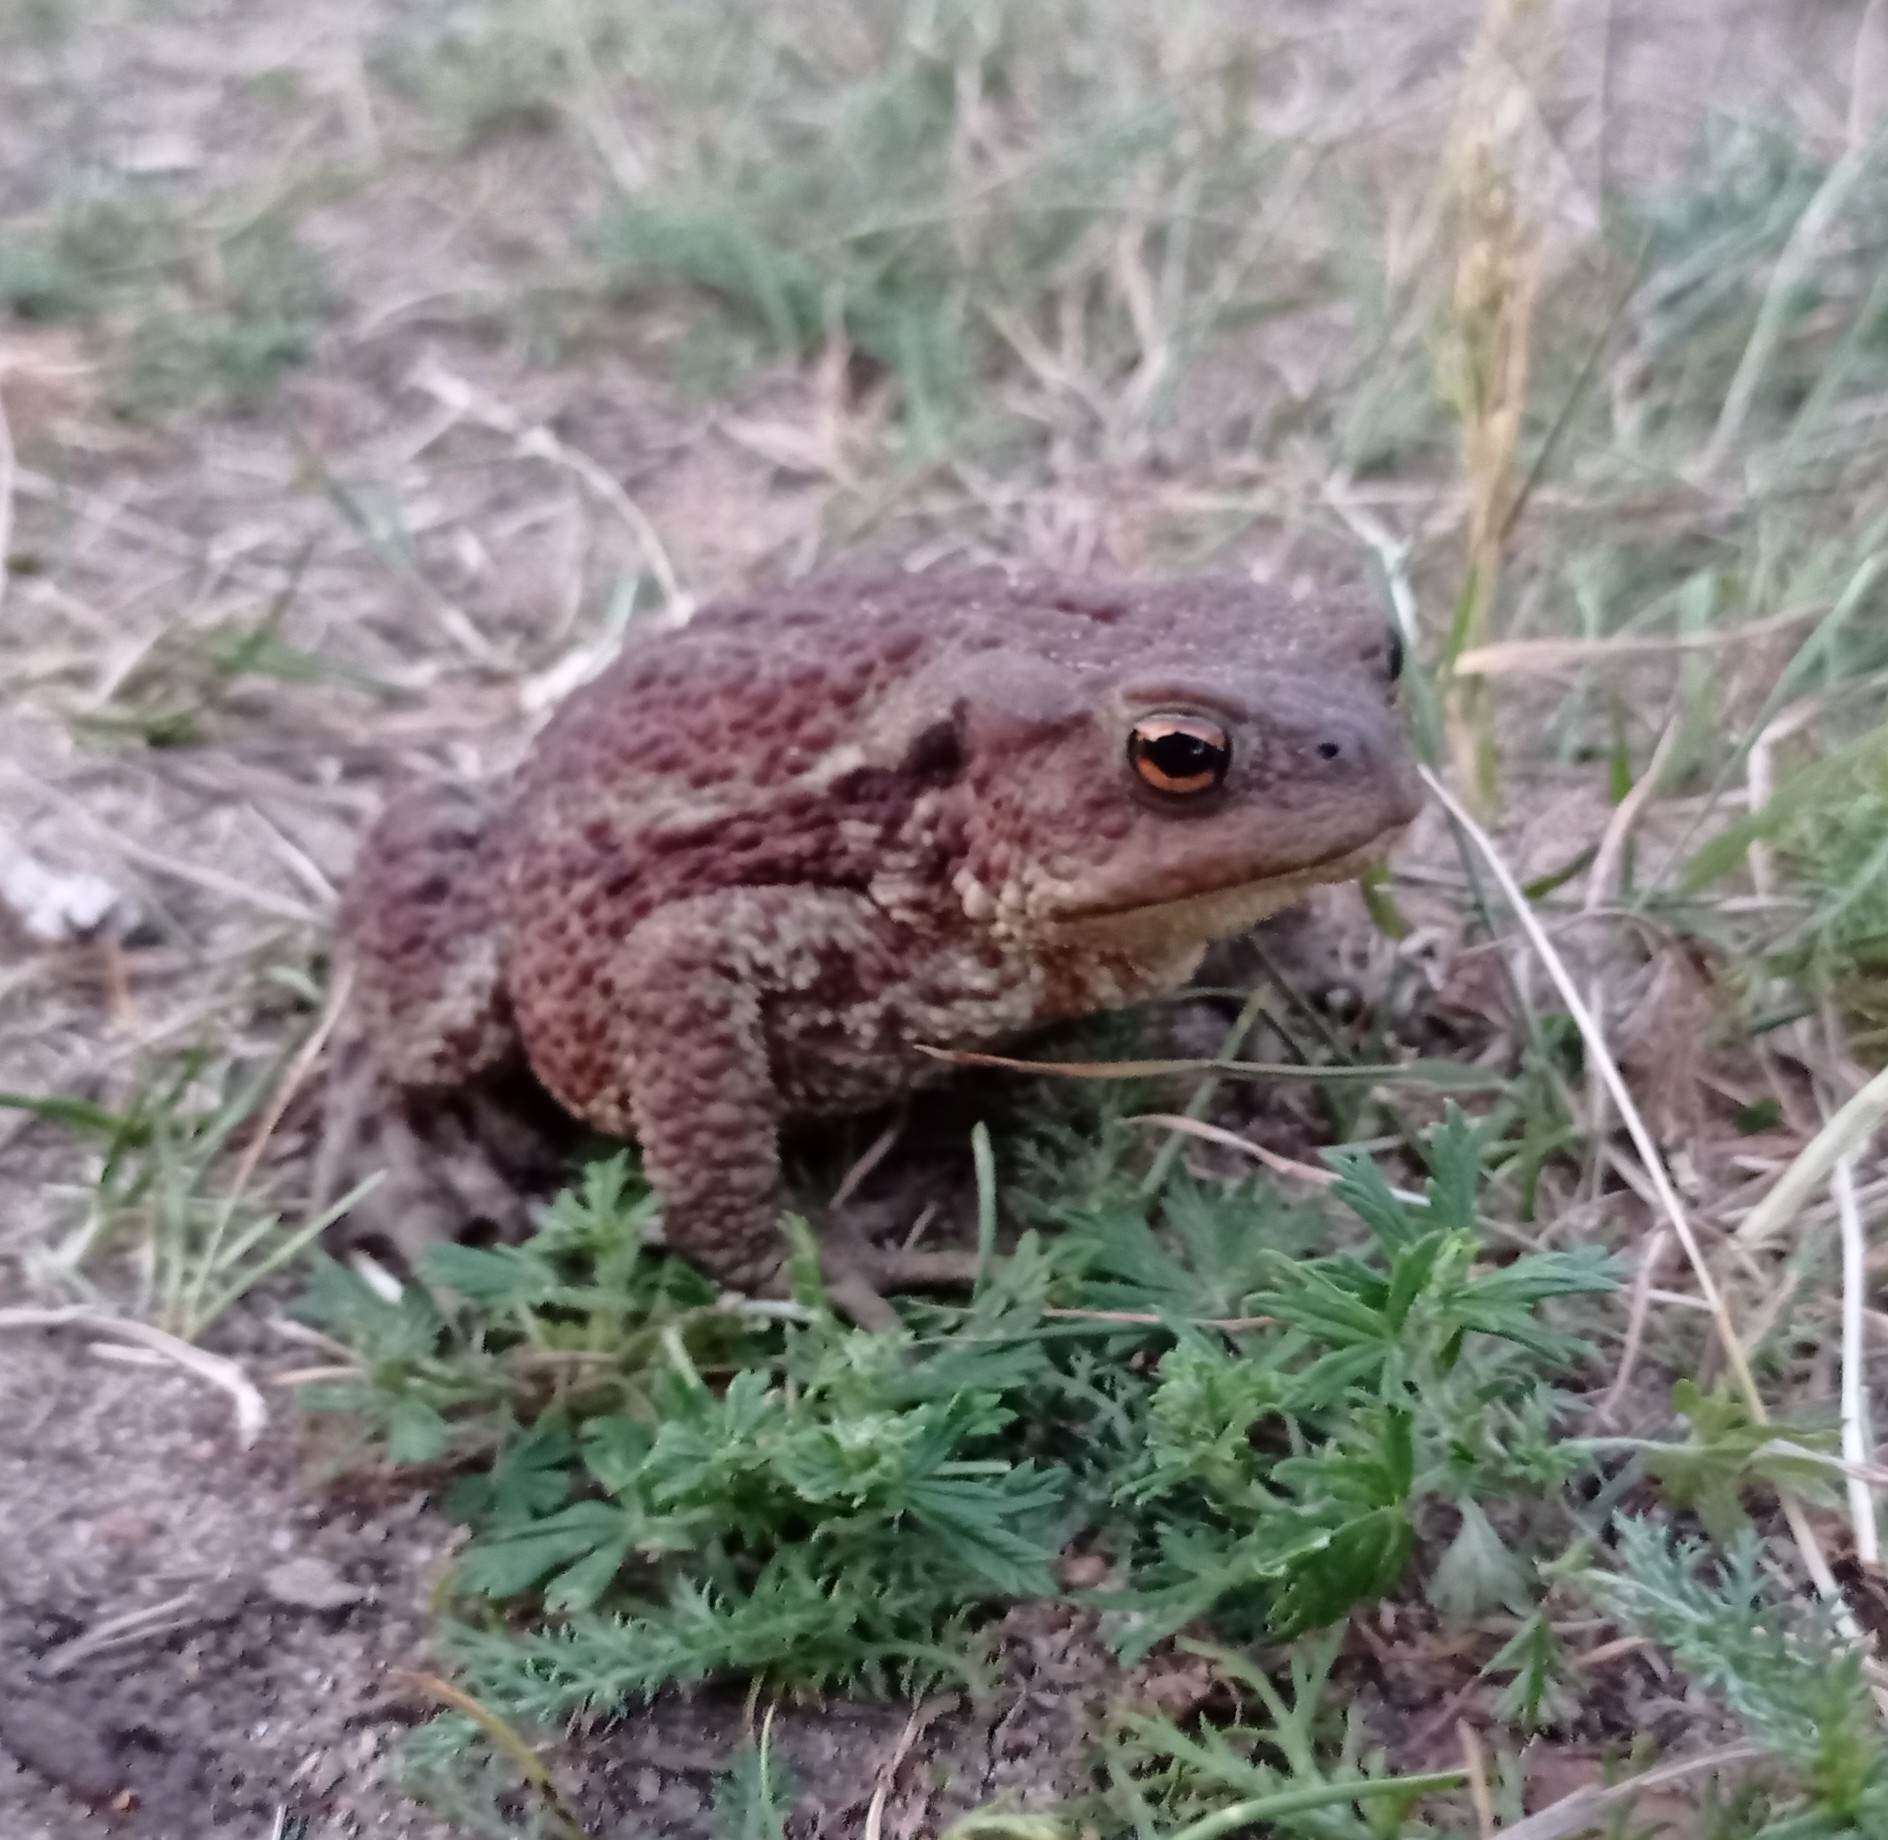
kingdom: Animalia
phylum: Chordata
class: Amphibia
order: Anura
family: Bufonidae
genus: Bufo
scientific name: Bufo bufo
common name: Common toad
